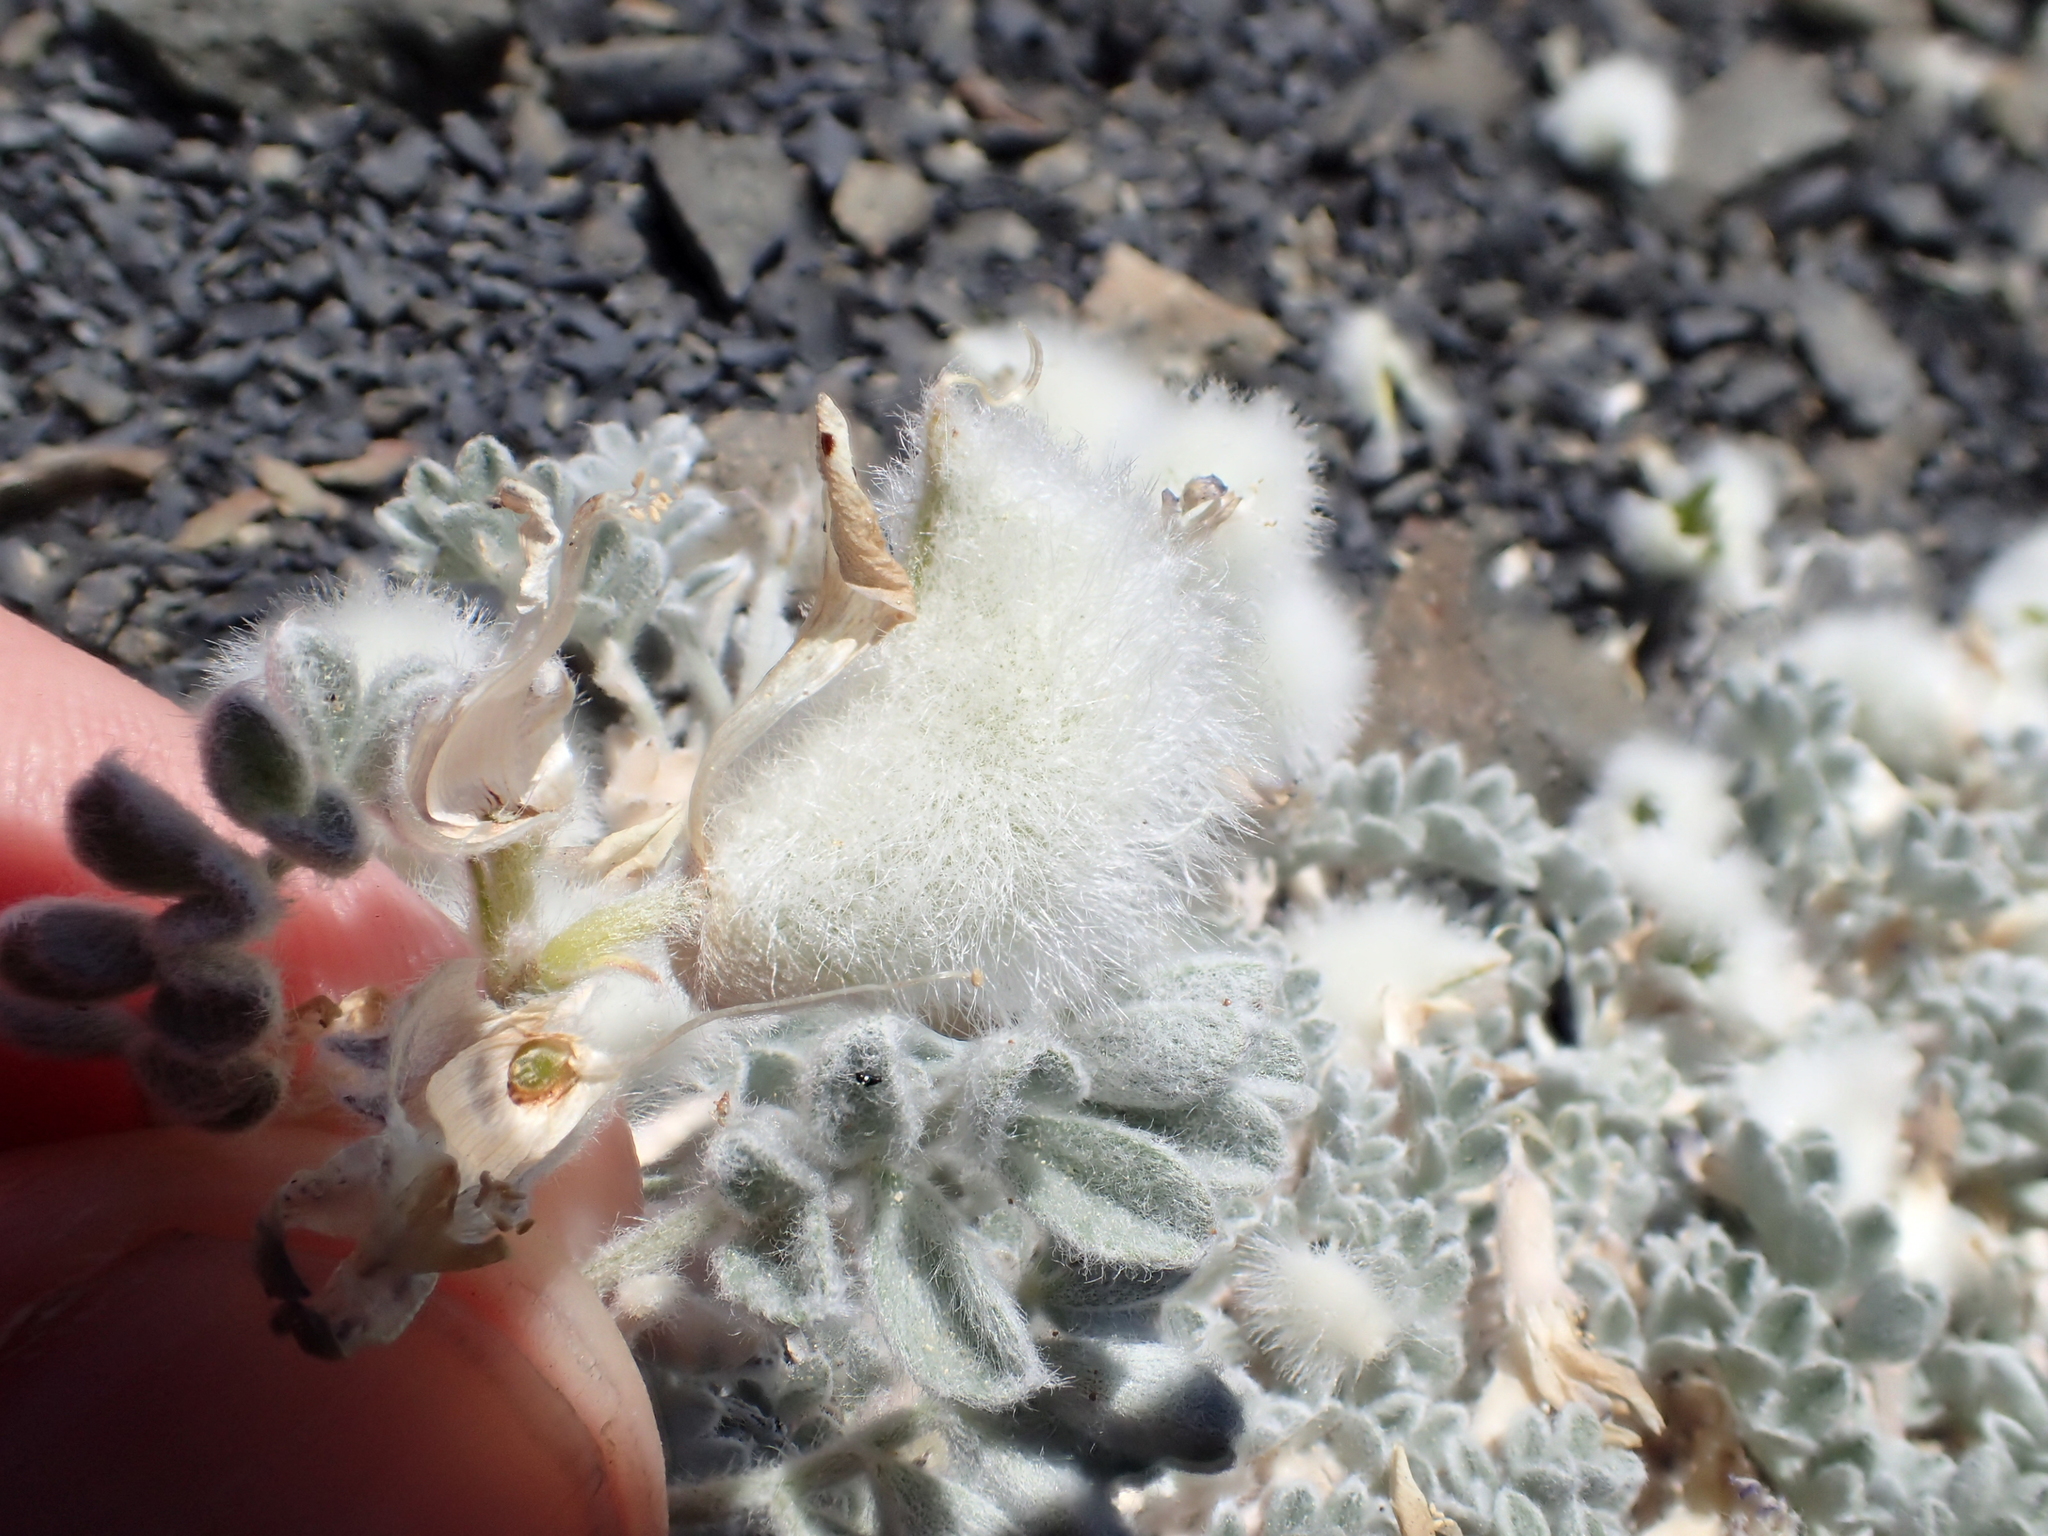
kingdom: Plantae
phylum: Tracheophyta
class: Magnoliopsida
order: Fabales
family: Fabaceae
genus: Astragalus
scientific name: Astragalus purshii
